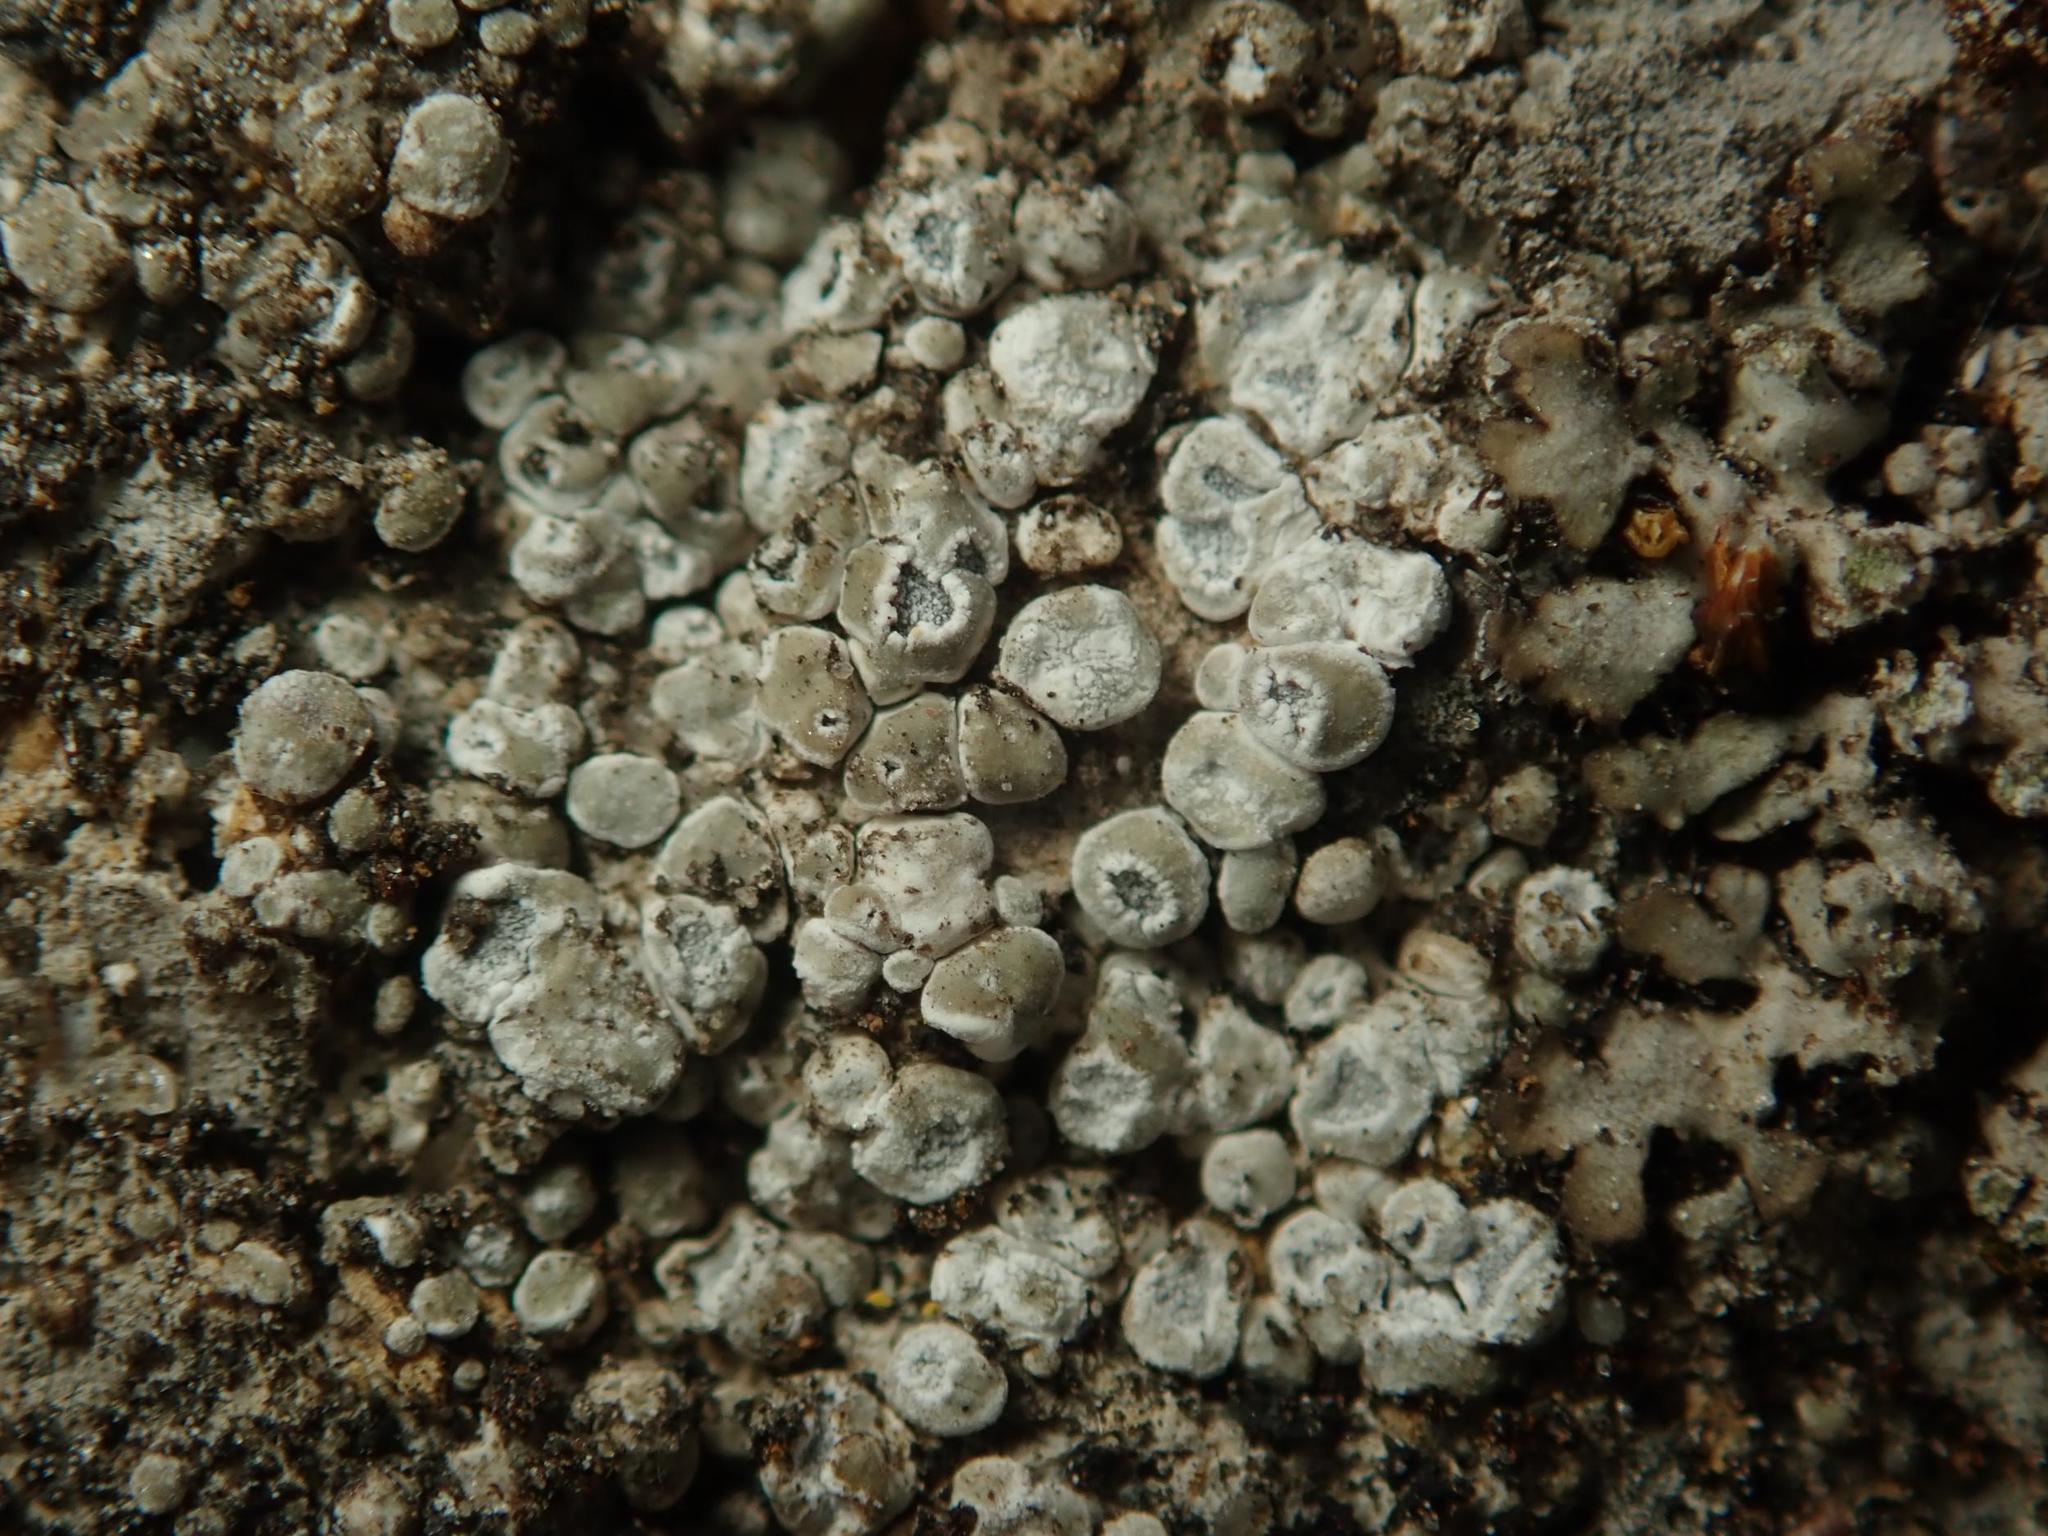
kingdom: Fungi
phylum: Ascomycota
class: Lecanoromycetes
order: Pertusariales
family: Megasporaceae
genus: Circinaria
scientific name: Circinaria contorta
